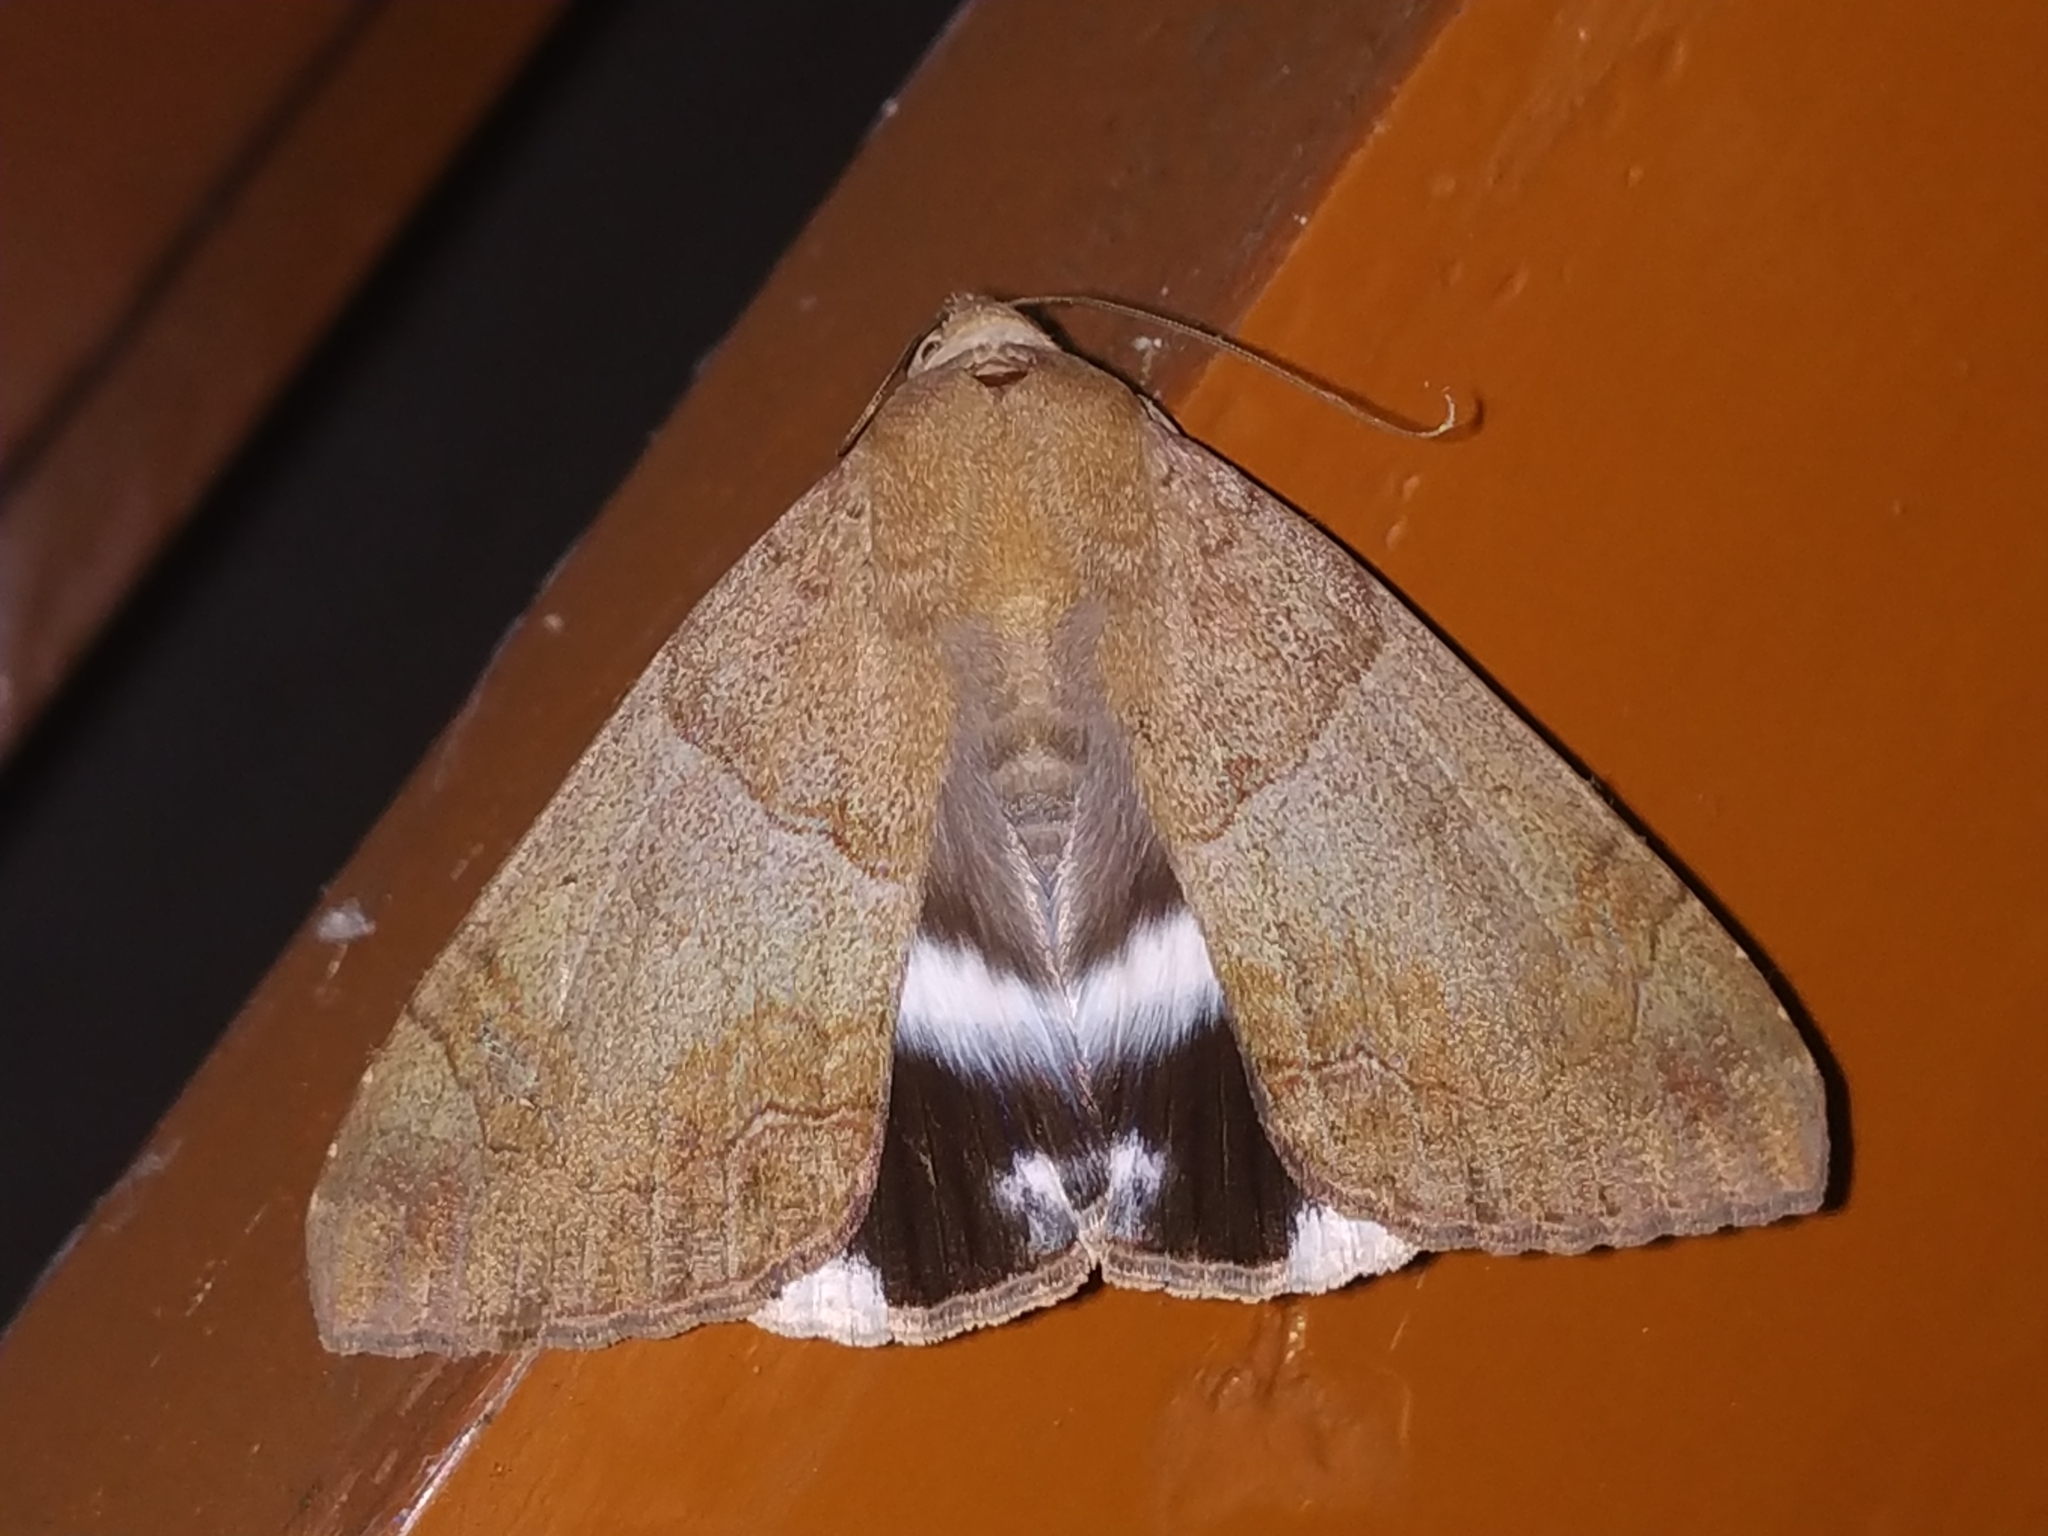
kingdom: Animalia
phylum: Arthropoda
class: Insecta
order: Lepidoptera
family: Erebidae
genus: Achaea
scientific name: Achaea janata
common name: Croton caterpillar
